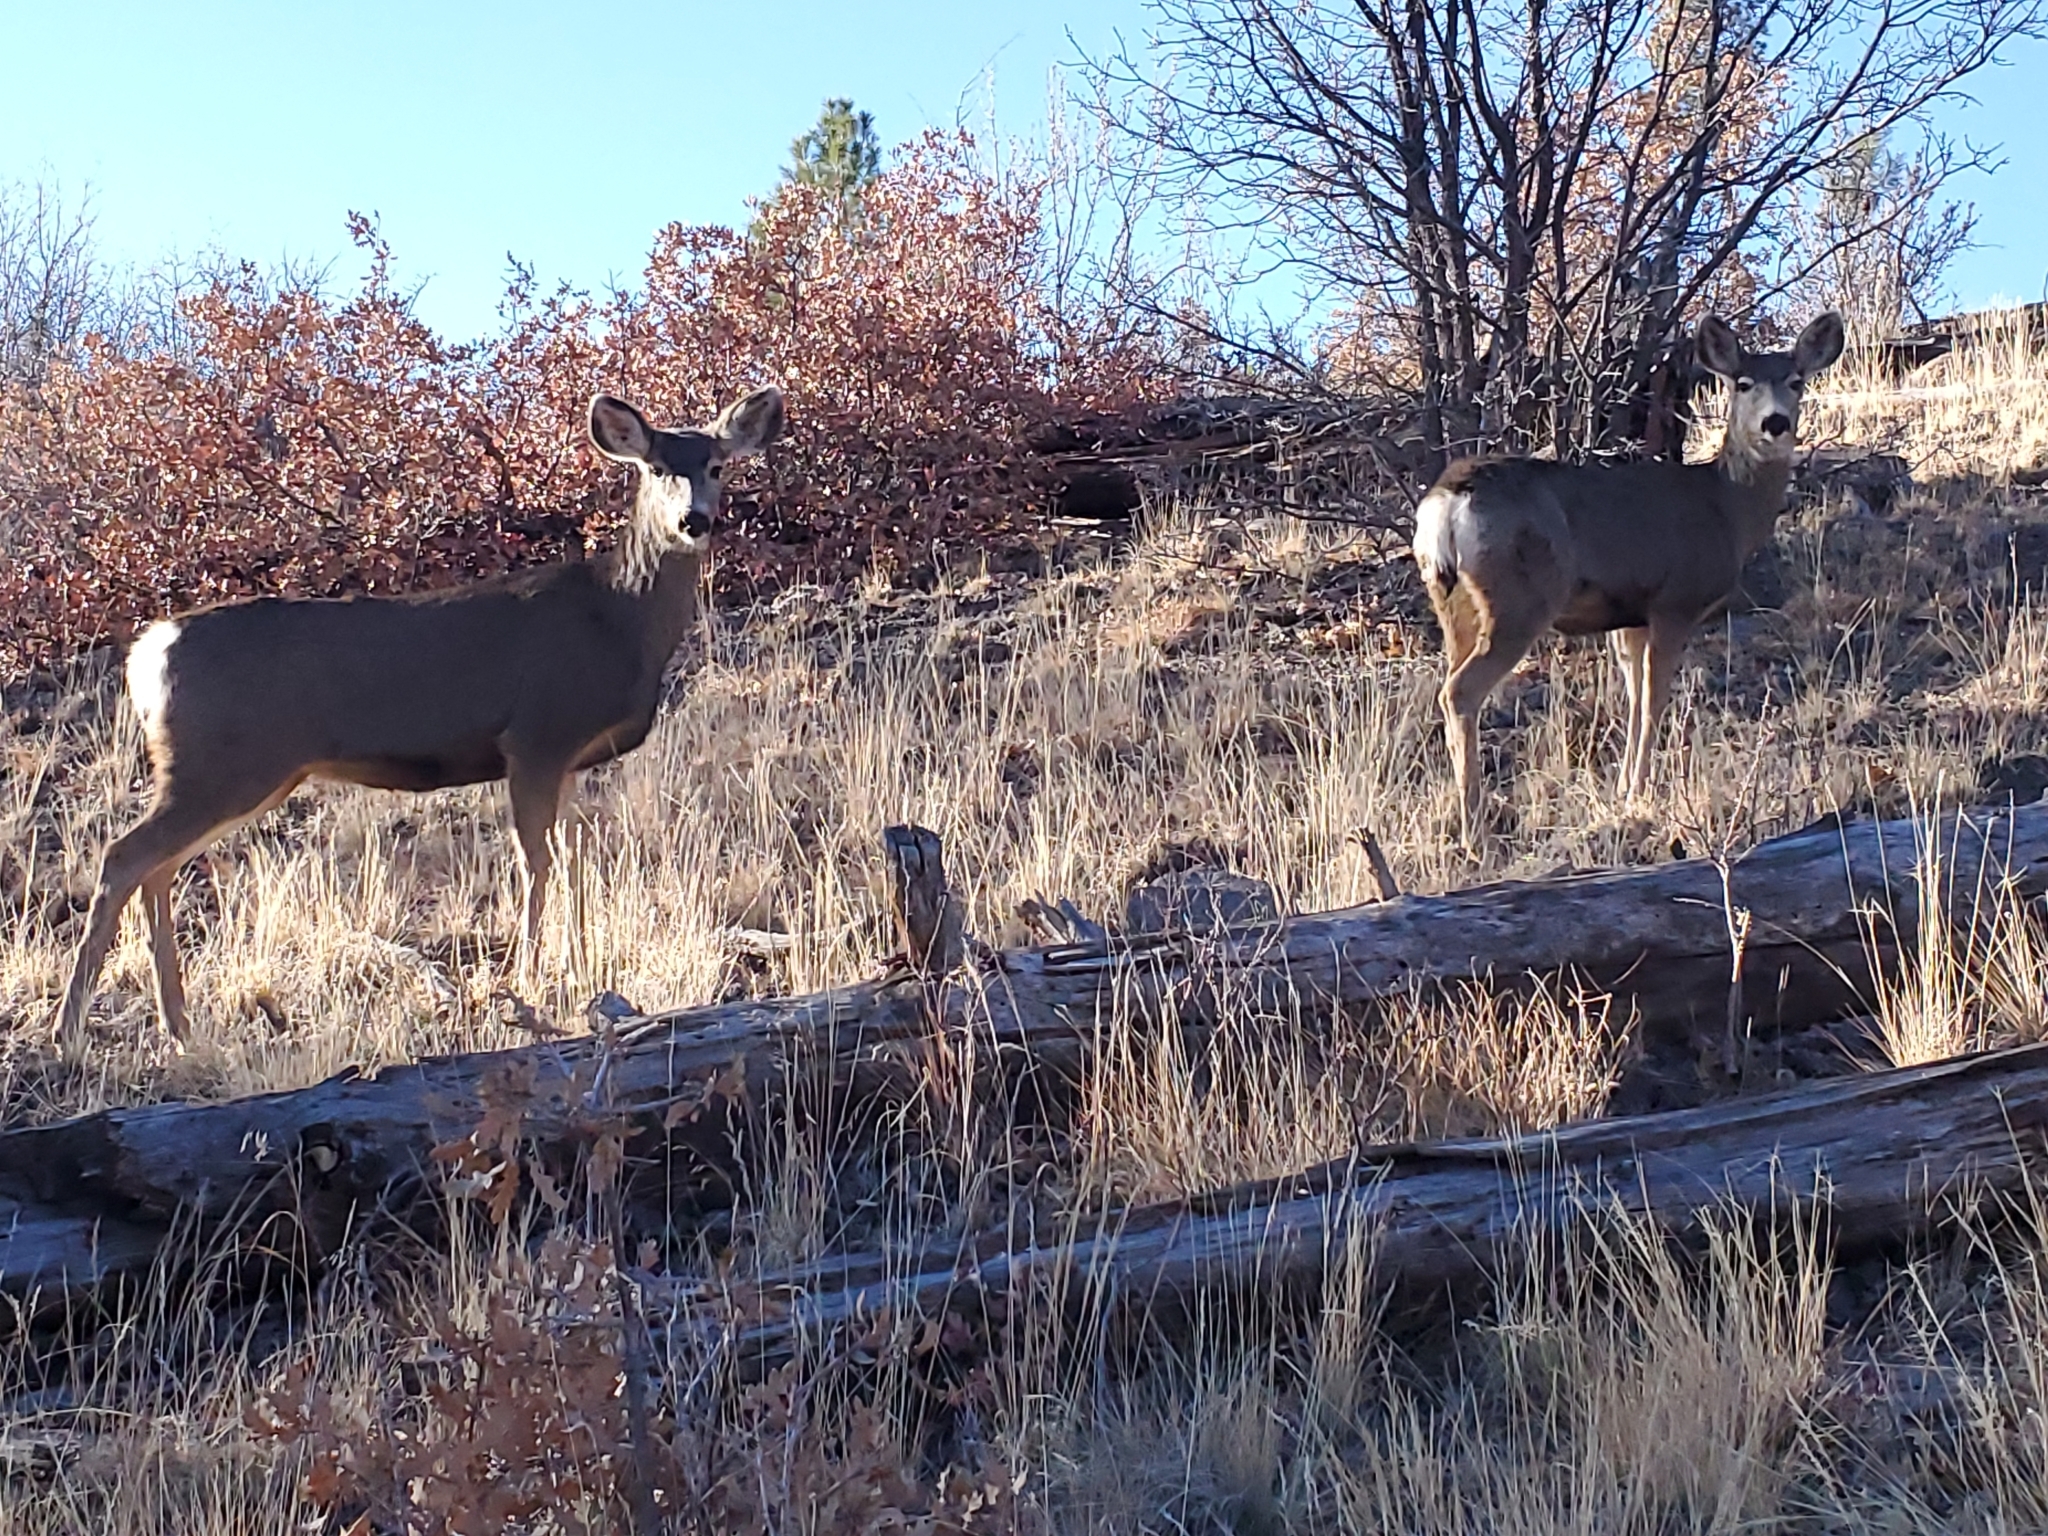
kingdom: Animalia
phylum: Chordata
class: Mammalia
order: Artiodactyla
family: Cervidae
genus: Odocoileus
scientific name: Odocoileus hemionus
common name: Mule deer
